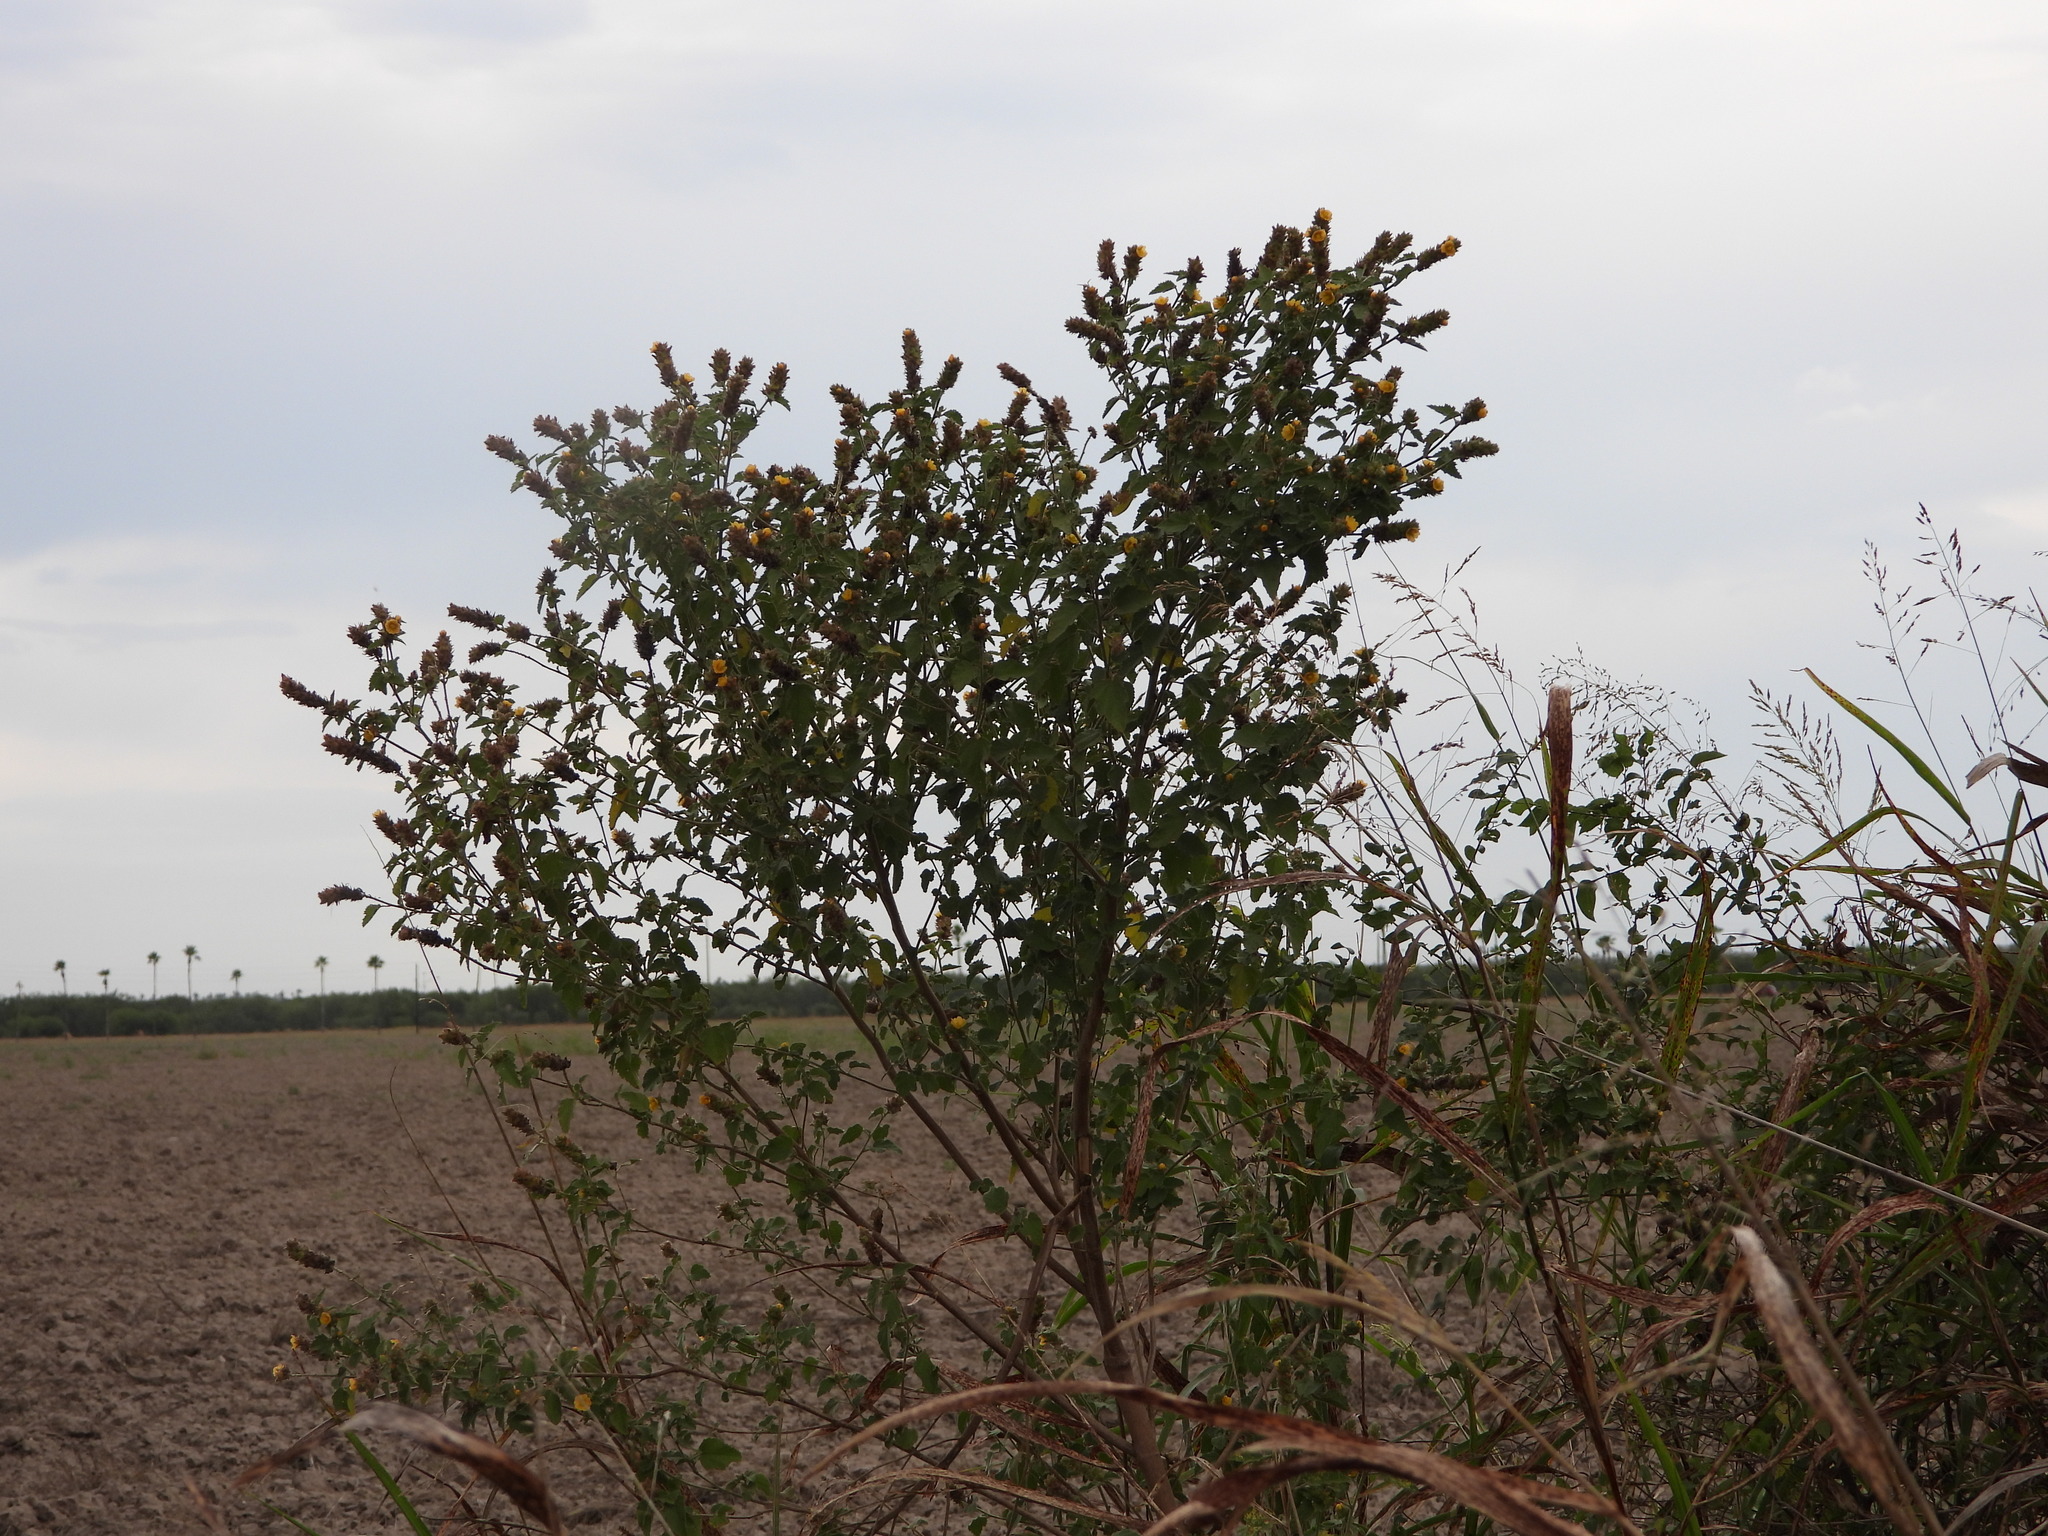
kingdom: Plantae
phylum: Tracheophyta
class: Magnoliopsida
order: Malvales
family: Malvaceae
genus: Malvastrum
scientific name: Malvastrum americanum
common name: Spiked malvastrum
